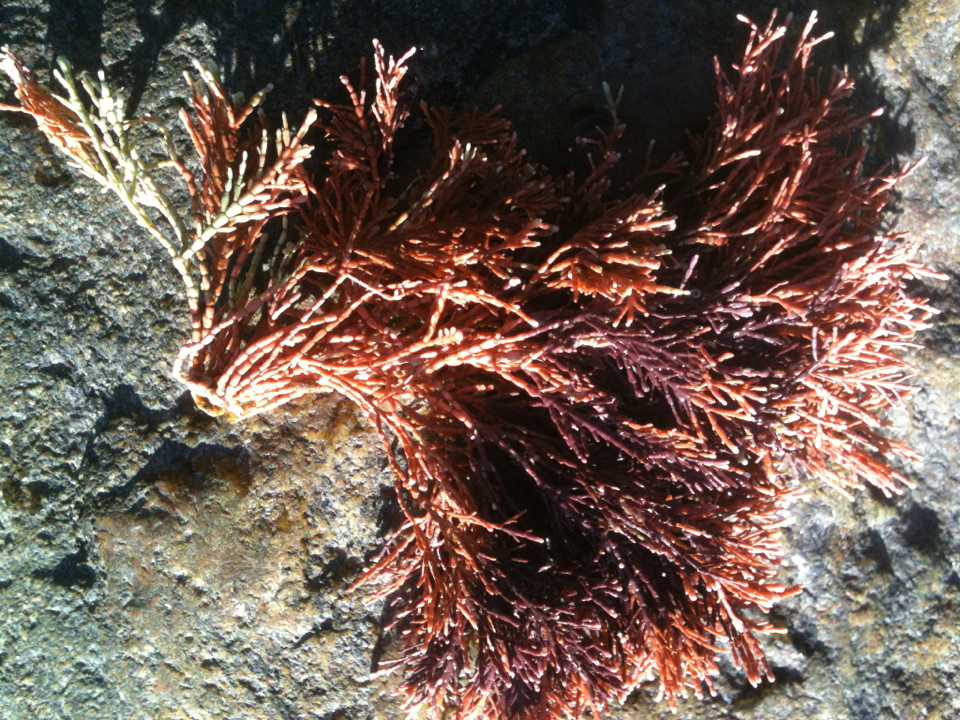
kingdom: Plantae
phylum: Rhodophyta
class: Florideophyceae
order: Corallinales
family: Corallinaceae
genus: Corallina
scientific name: Corallina officinalis
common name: Coral weed
